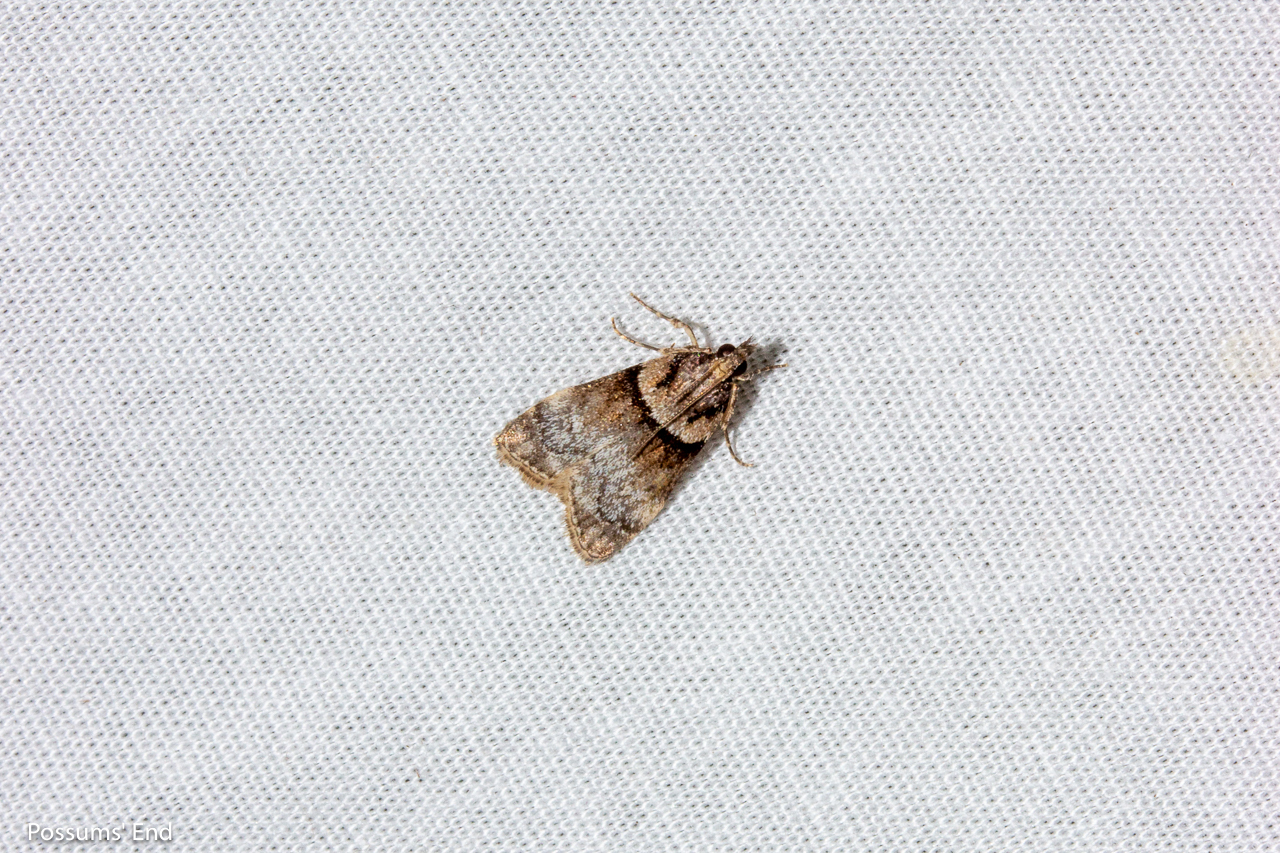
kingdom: Animalia
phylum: Arthropoda
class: Insecta
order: Lepidoptera
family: Crambidae
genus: Eudonia
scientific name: Eudonia colpota
